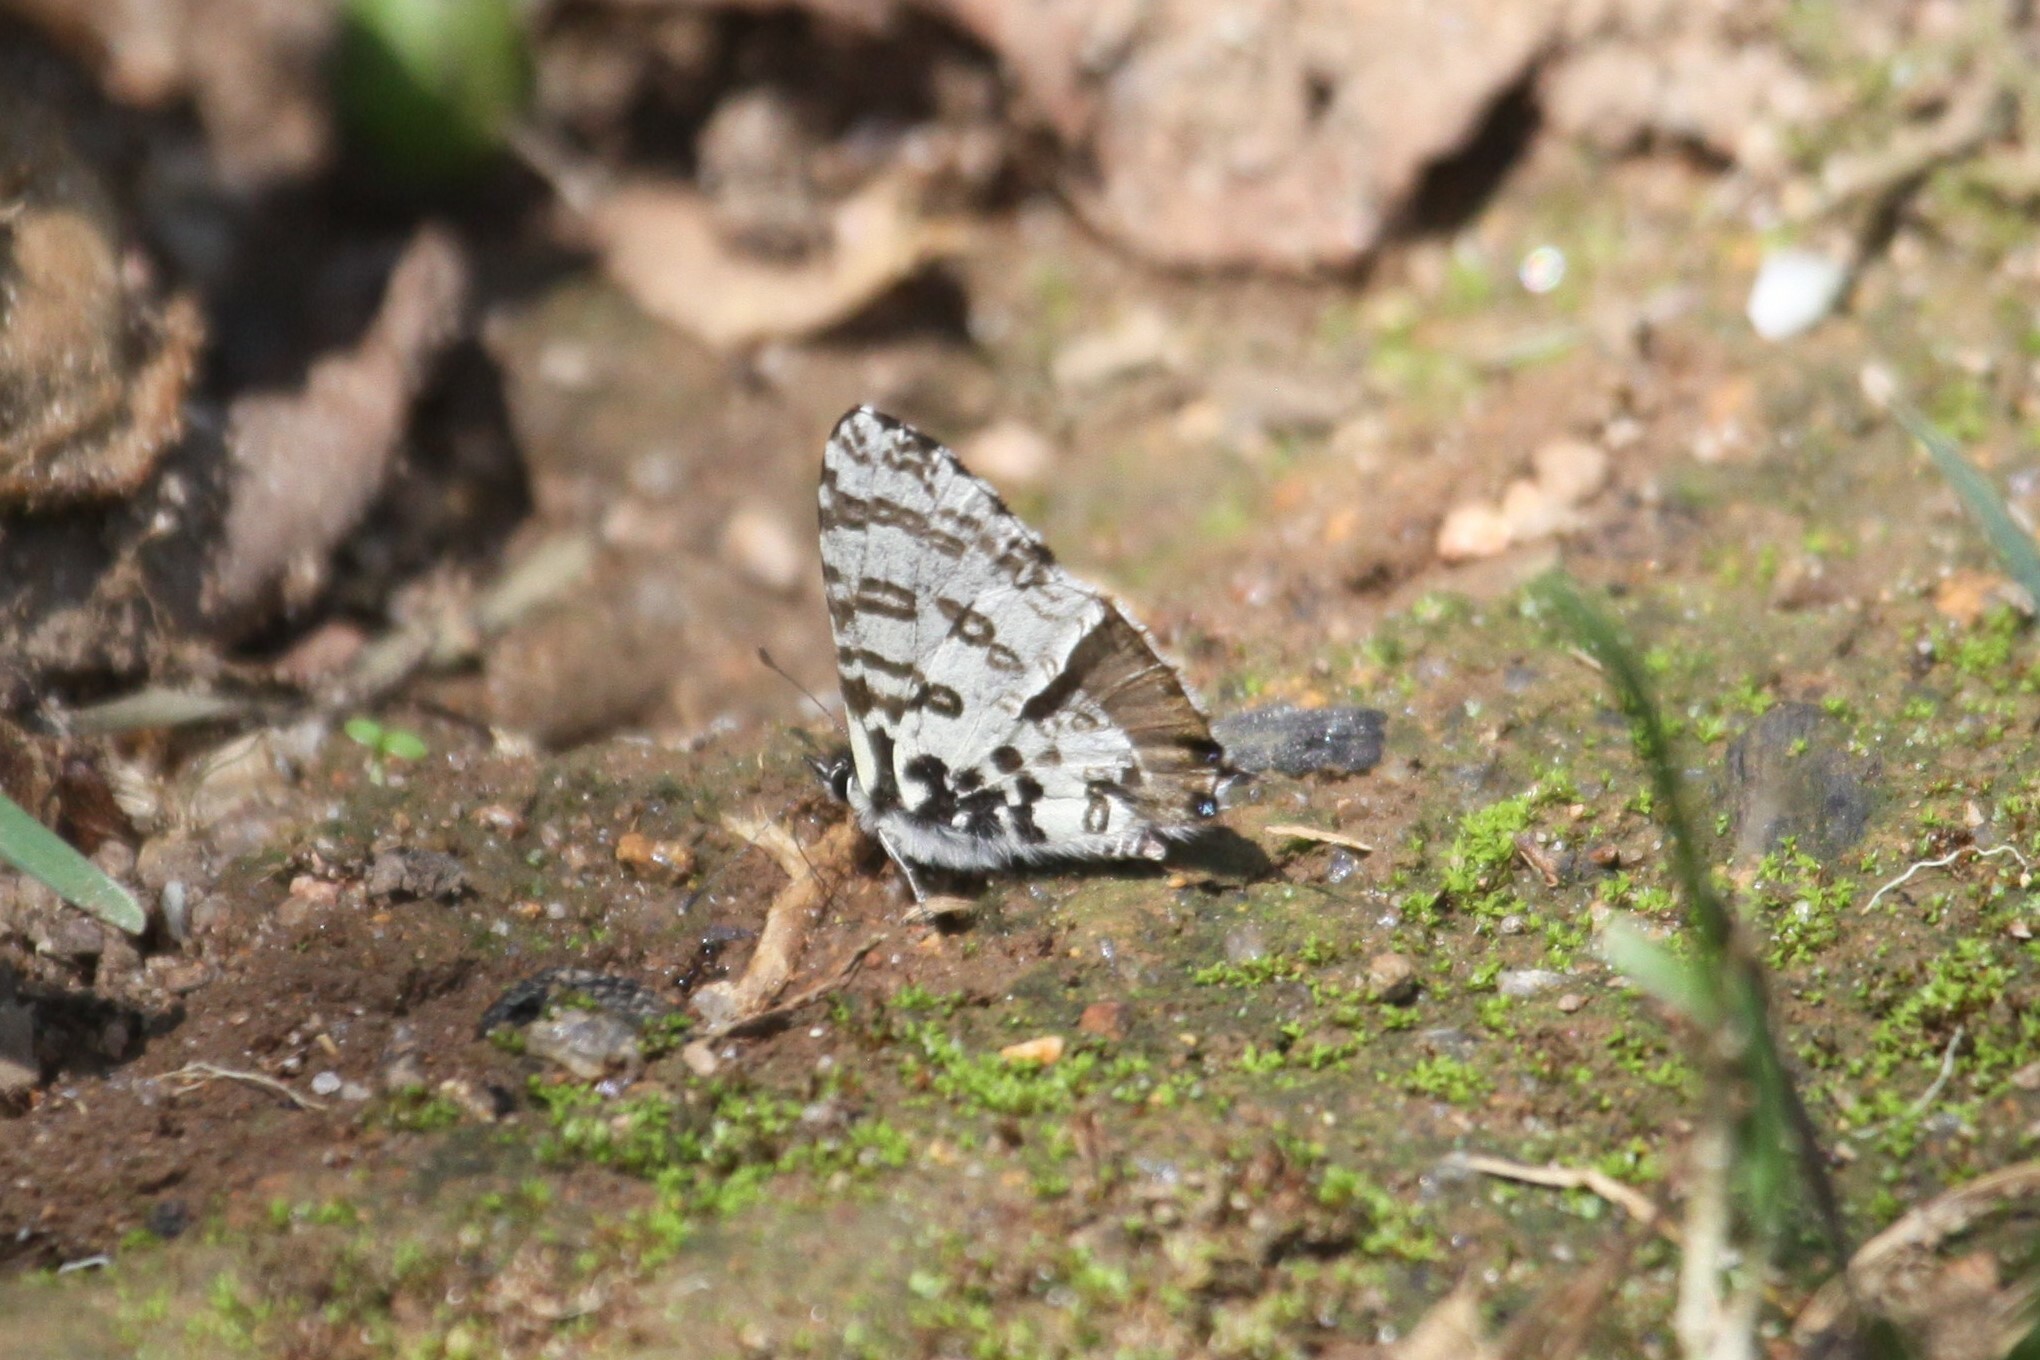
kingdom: Animalia
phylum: Arthropoda
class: Insecta
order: Lepidoptera
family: Lycaenidae
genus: Uranothauma
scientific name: Uranothauma antinorii
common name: Antinori's branded blue
